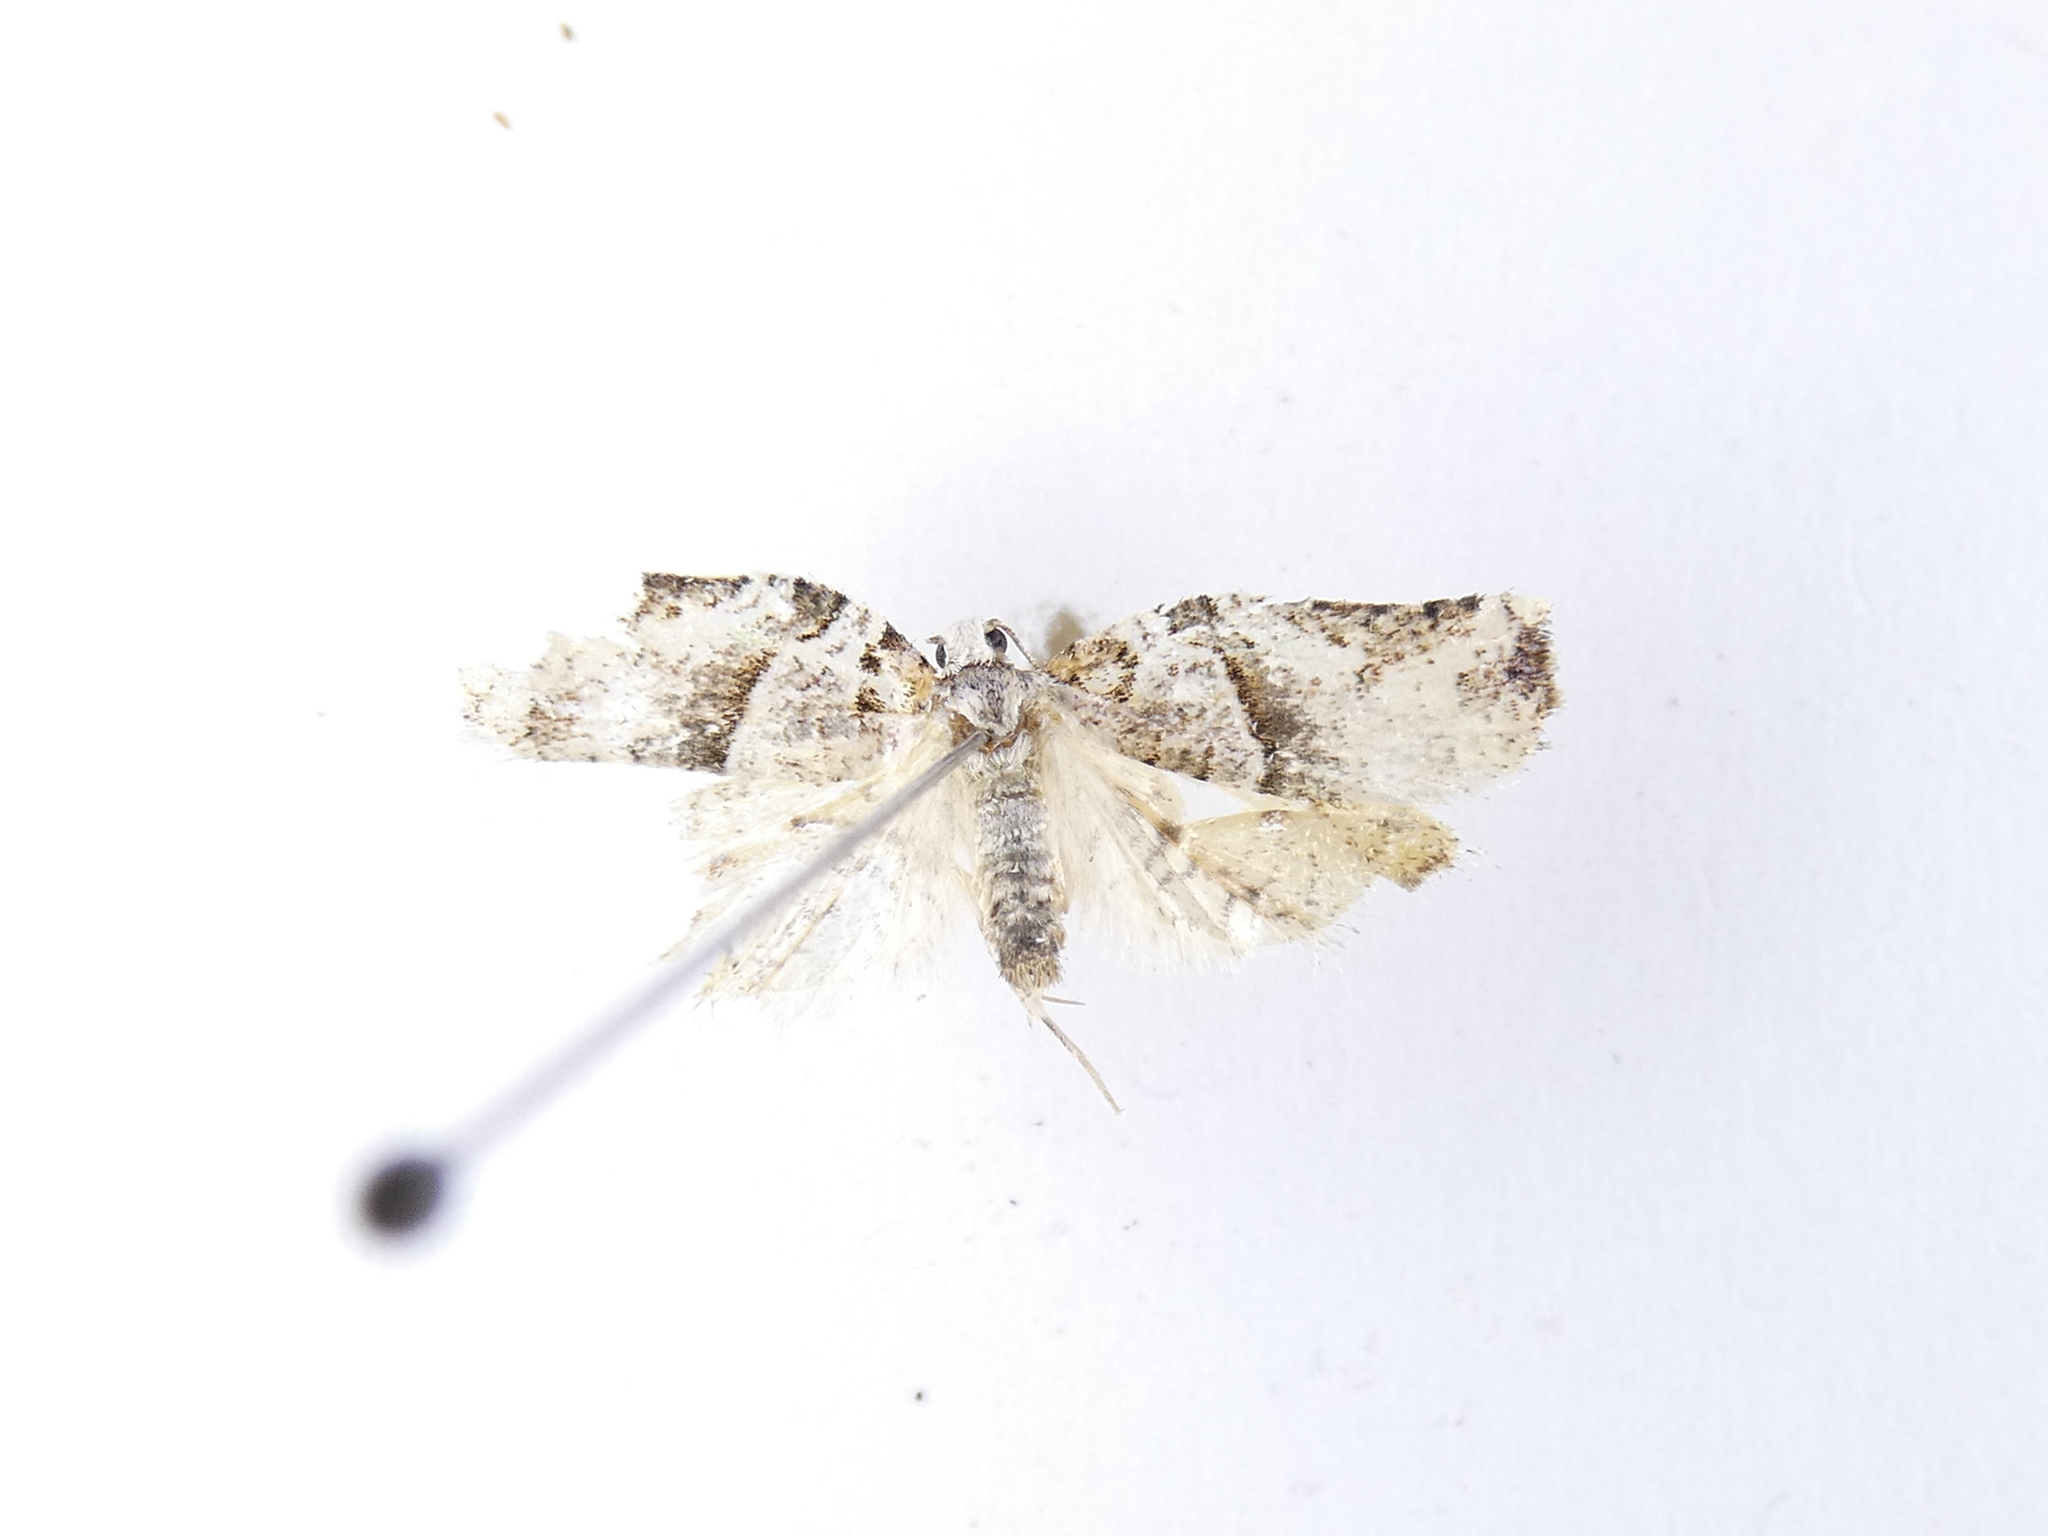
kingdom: Animalia
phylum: Arthropoda
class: Insecta
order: Lepidoptera
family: Tortricidae
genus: Harmologa
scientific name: Harmologa amplexana
